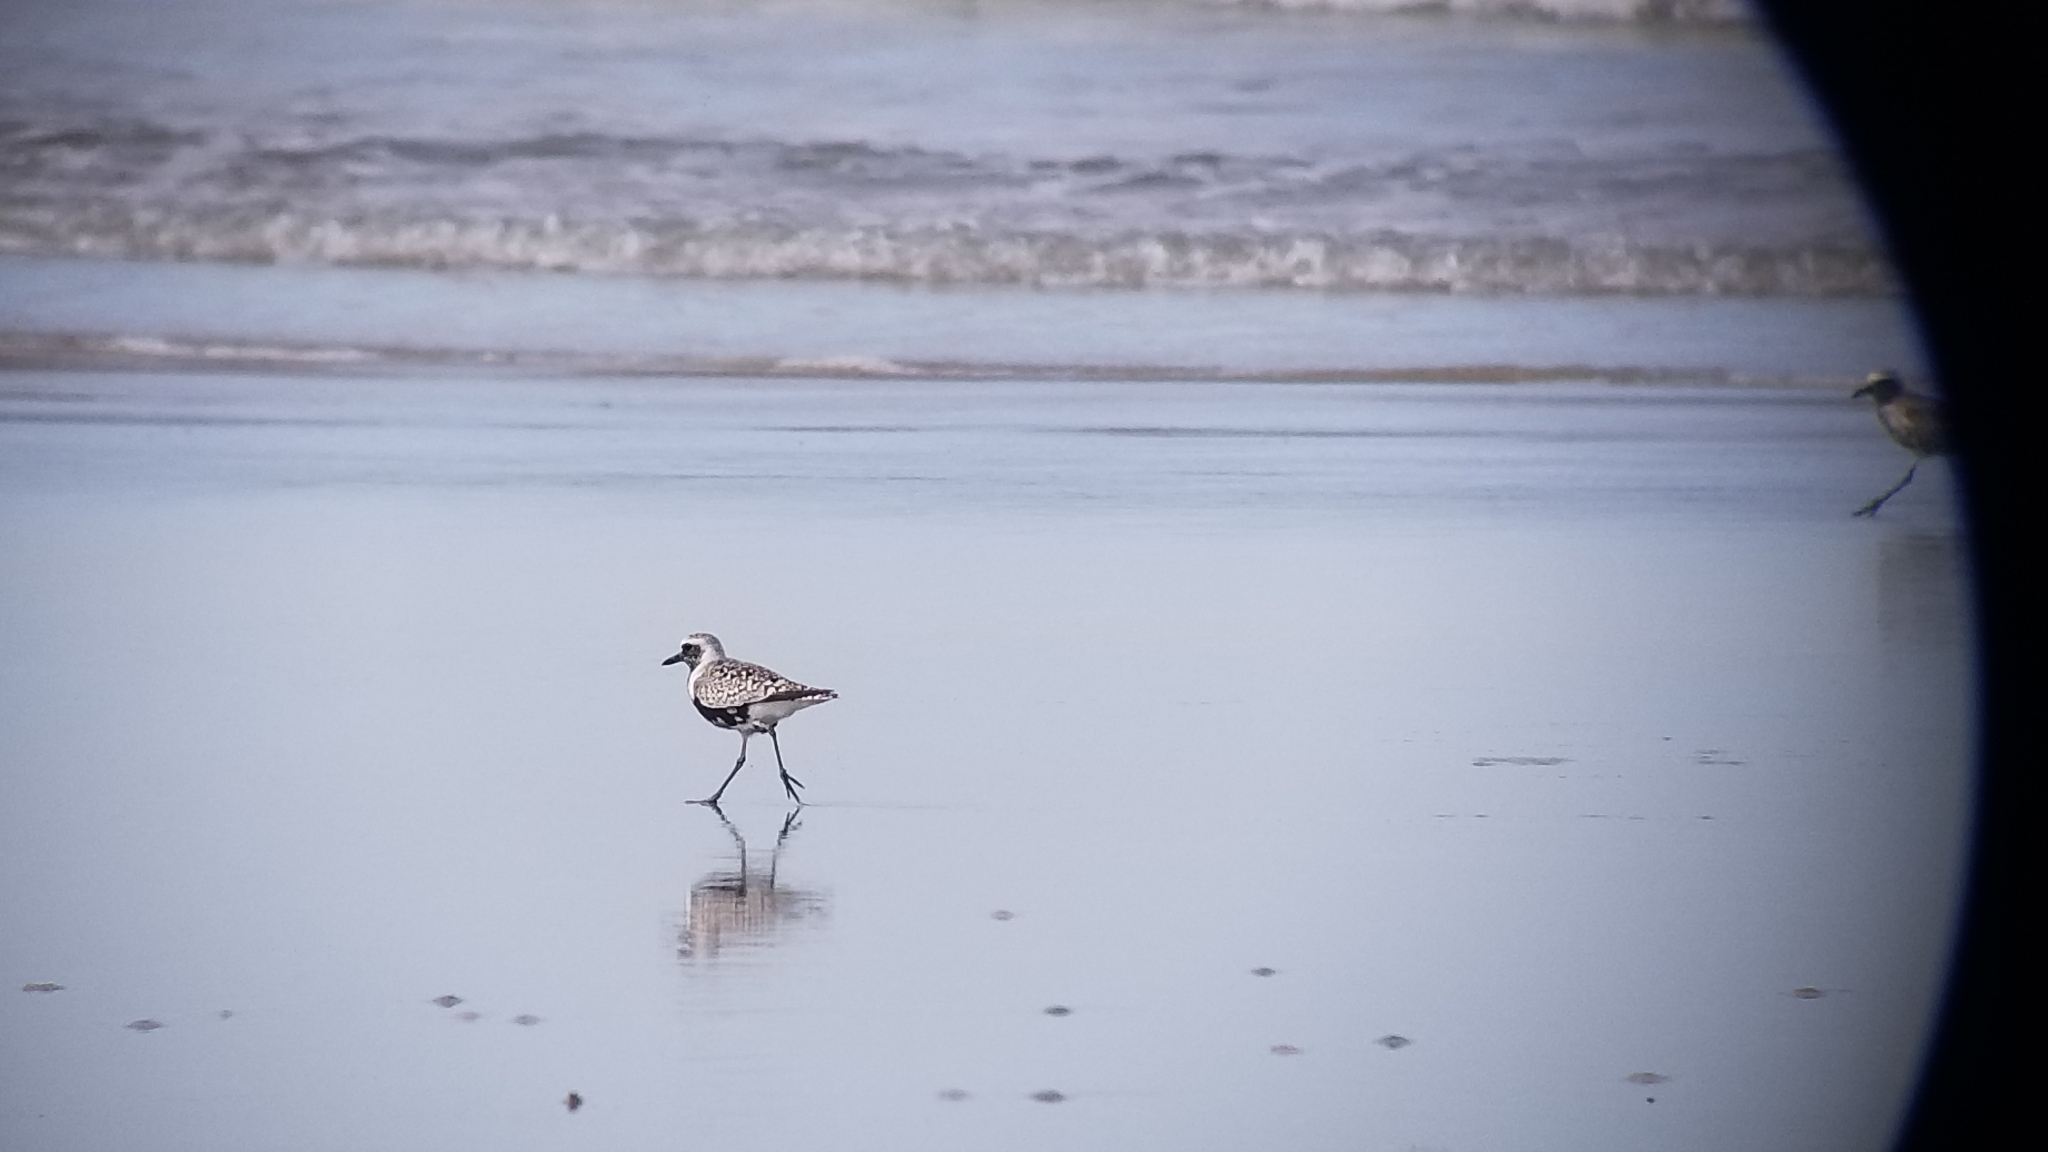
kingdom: Animalia
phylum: Chordata
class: Aves
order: Charadriiformes
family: Charadriidae
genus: Pluvialis
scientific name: Pluvialis squatarola
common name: Grey plover
